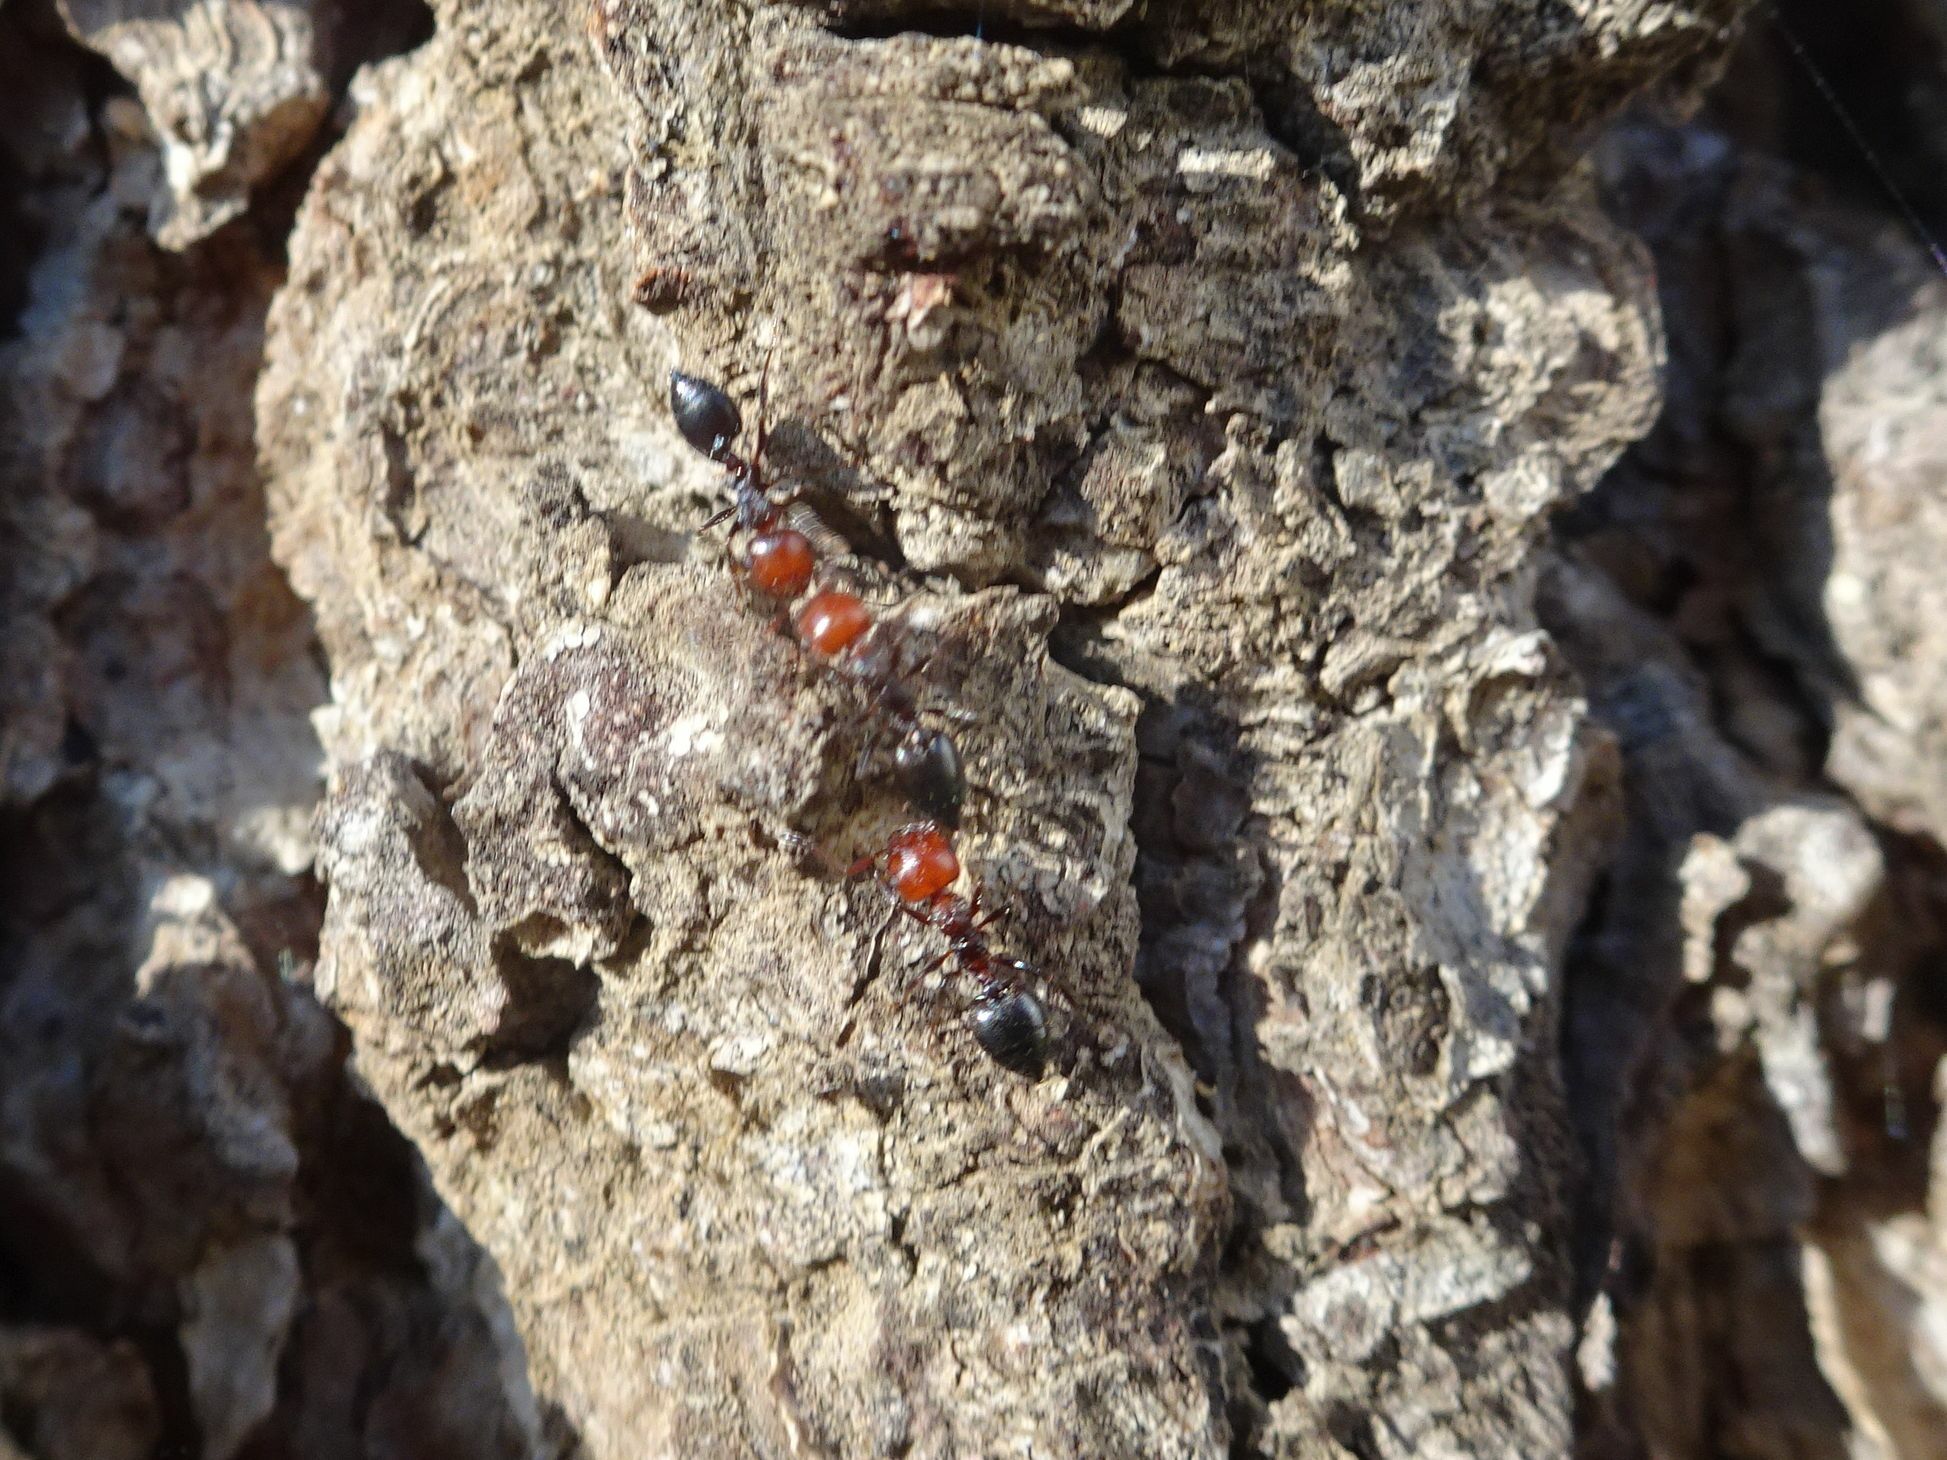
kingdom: Animalia
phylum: Arthropoda
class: Insecta
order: Hymenoptera
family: Formicidae
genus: Crematogaster
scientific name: Crematogaster scutellaris
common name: Fourmi du liège
